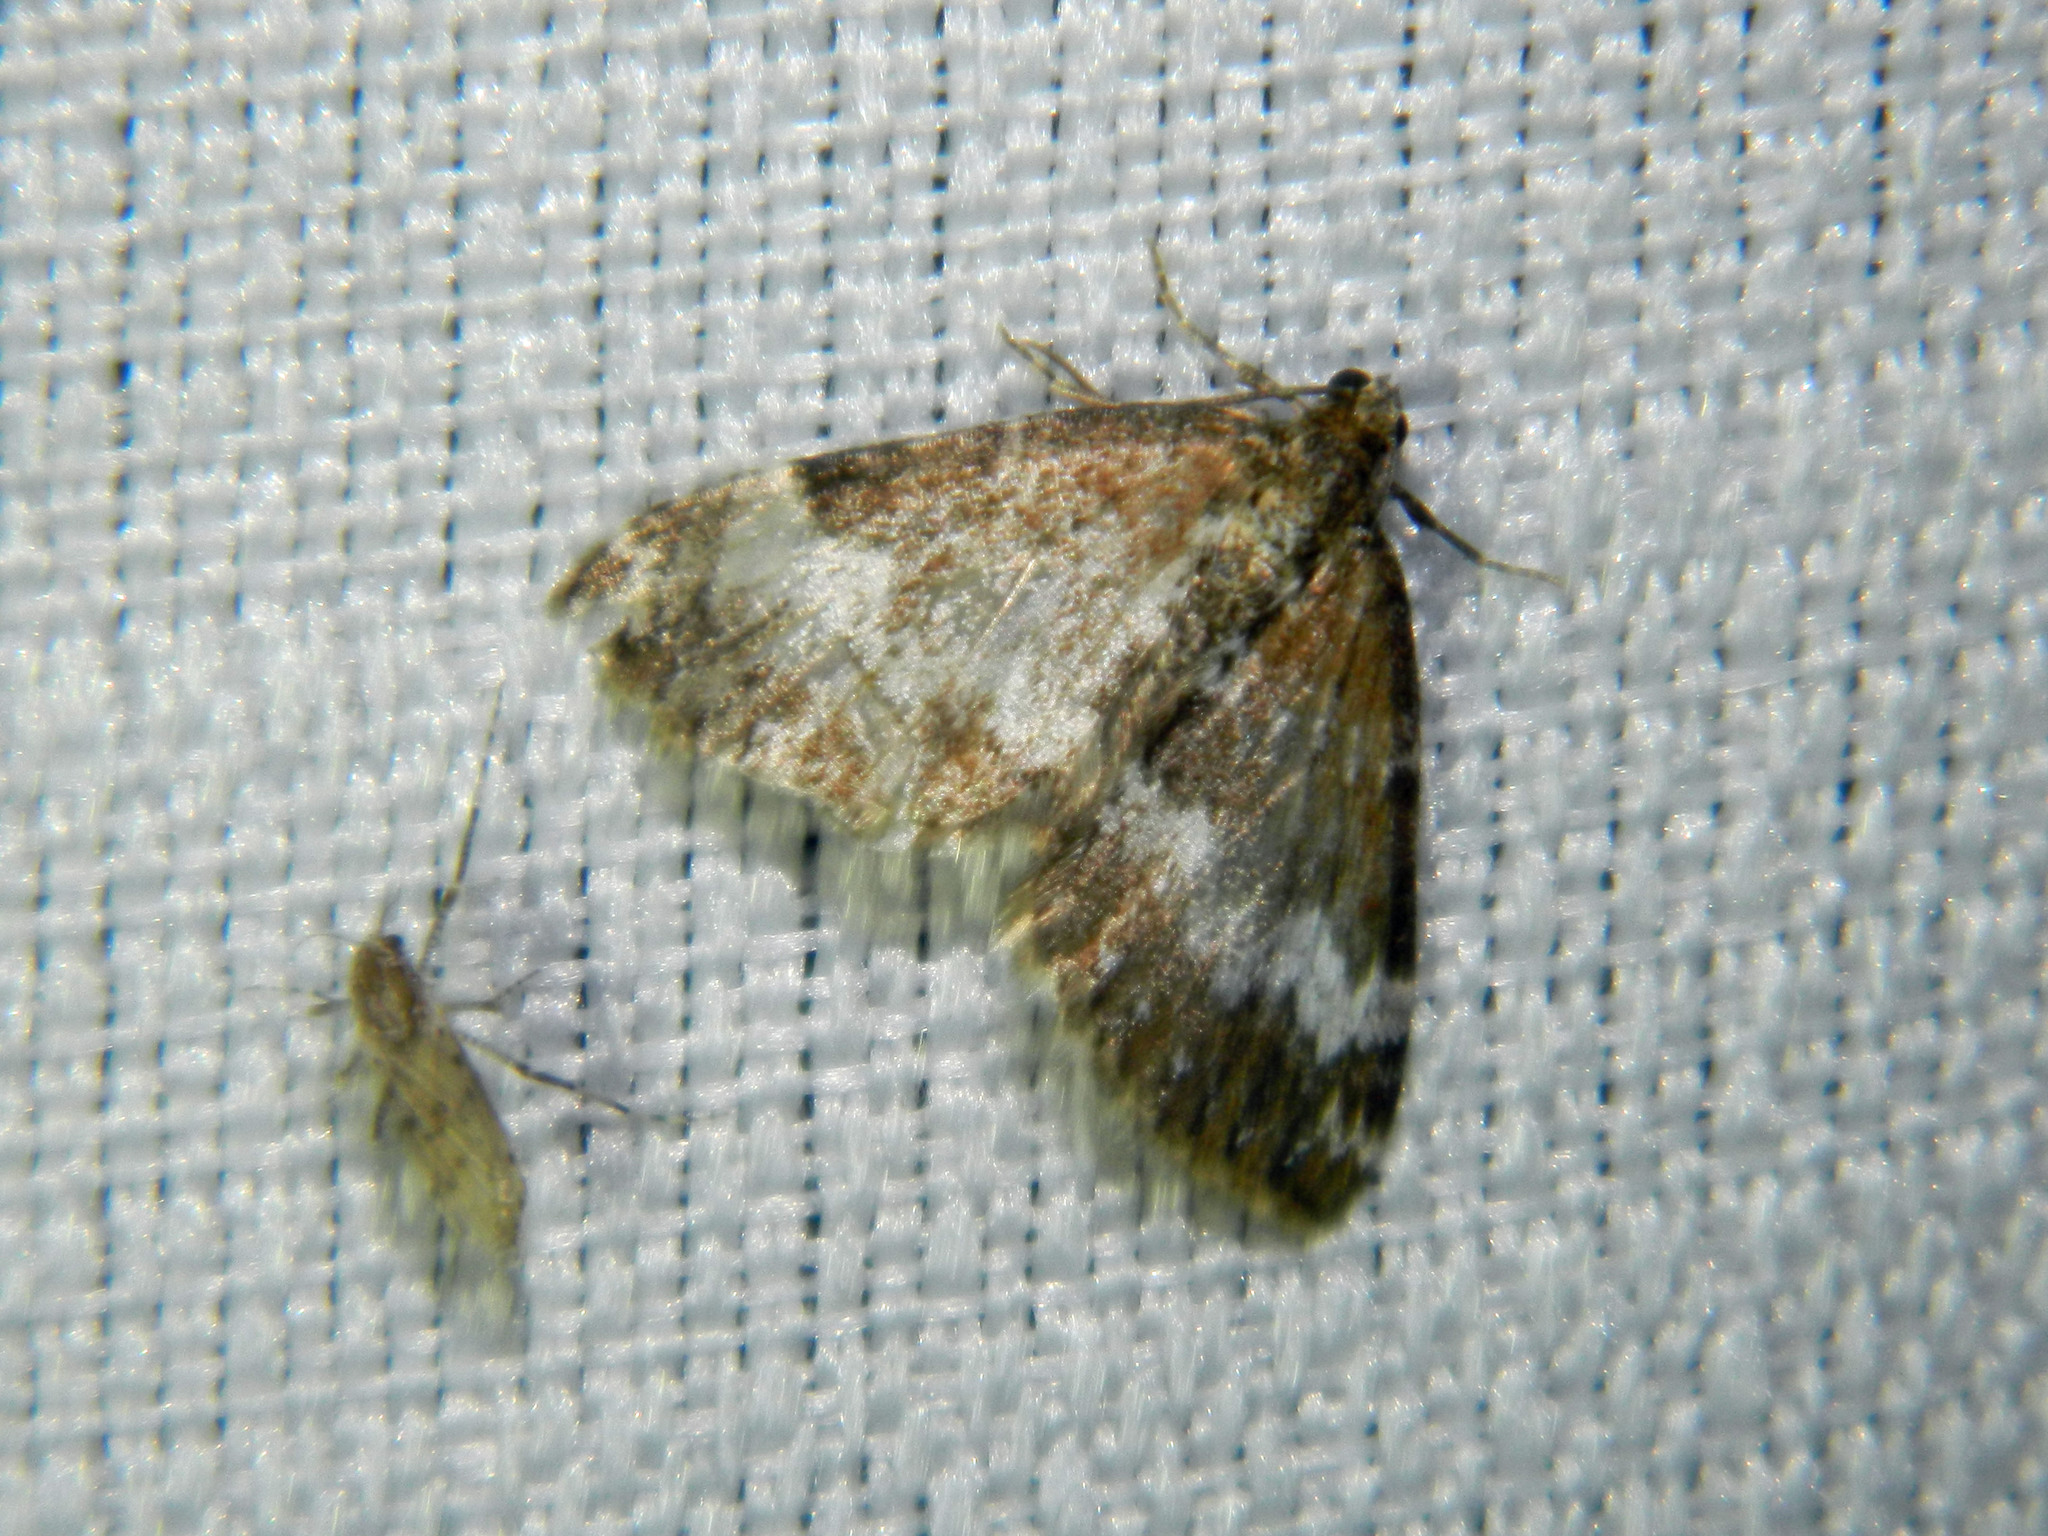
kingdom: Animalia
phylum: Arthropoda
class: Insecta
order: Lepidoptera
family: Geometridae
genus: Perizoma
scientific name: Perizoma alchemillata
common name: Small rivulet
